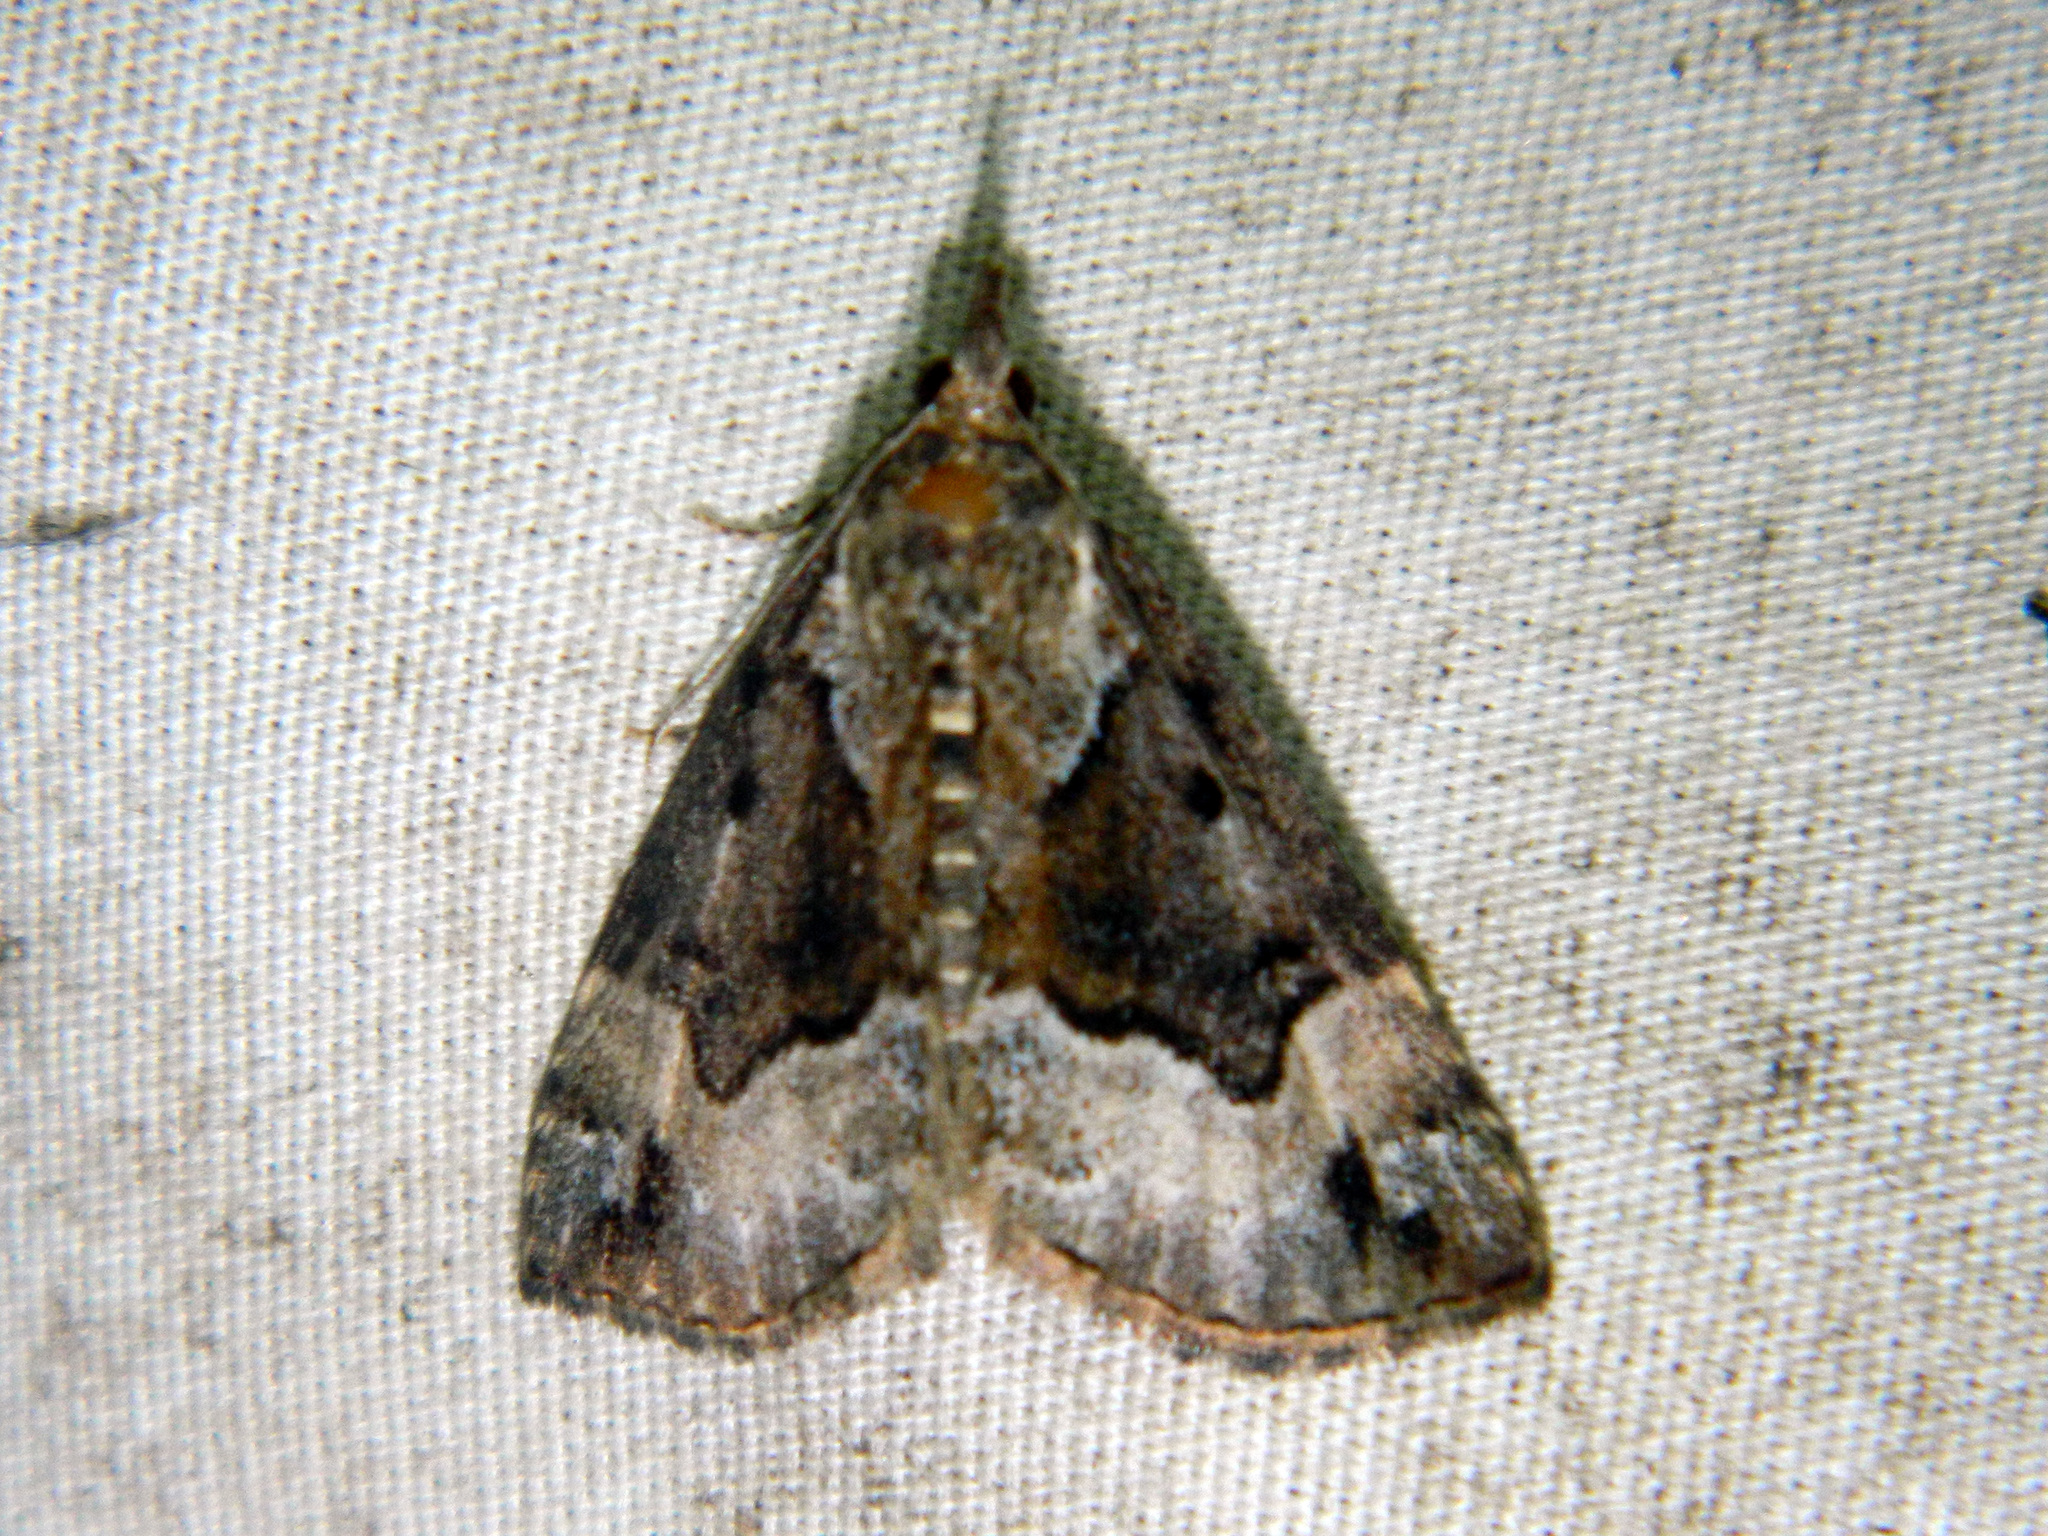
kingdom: Animalia
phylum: Arthropoda
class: Insecta
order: Lepidoptera
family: Erebidae
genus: Hypena
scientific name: Hypena palparia
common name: Mottled bomolocha moth
